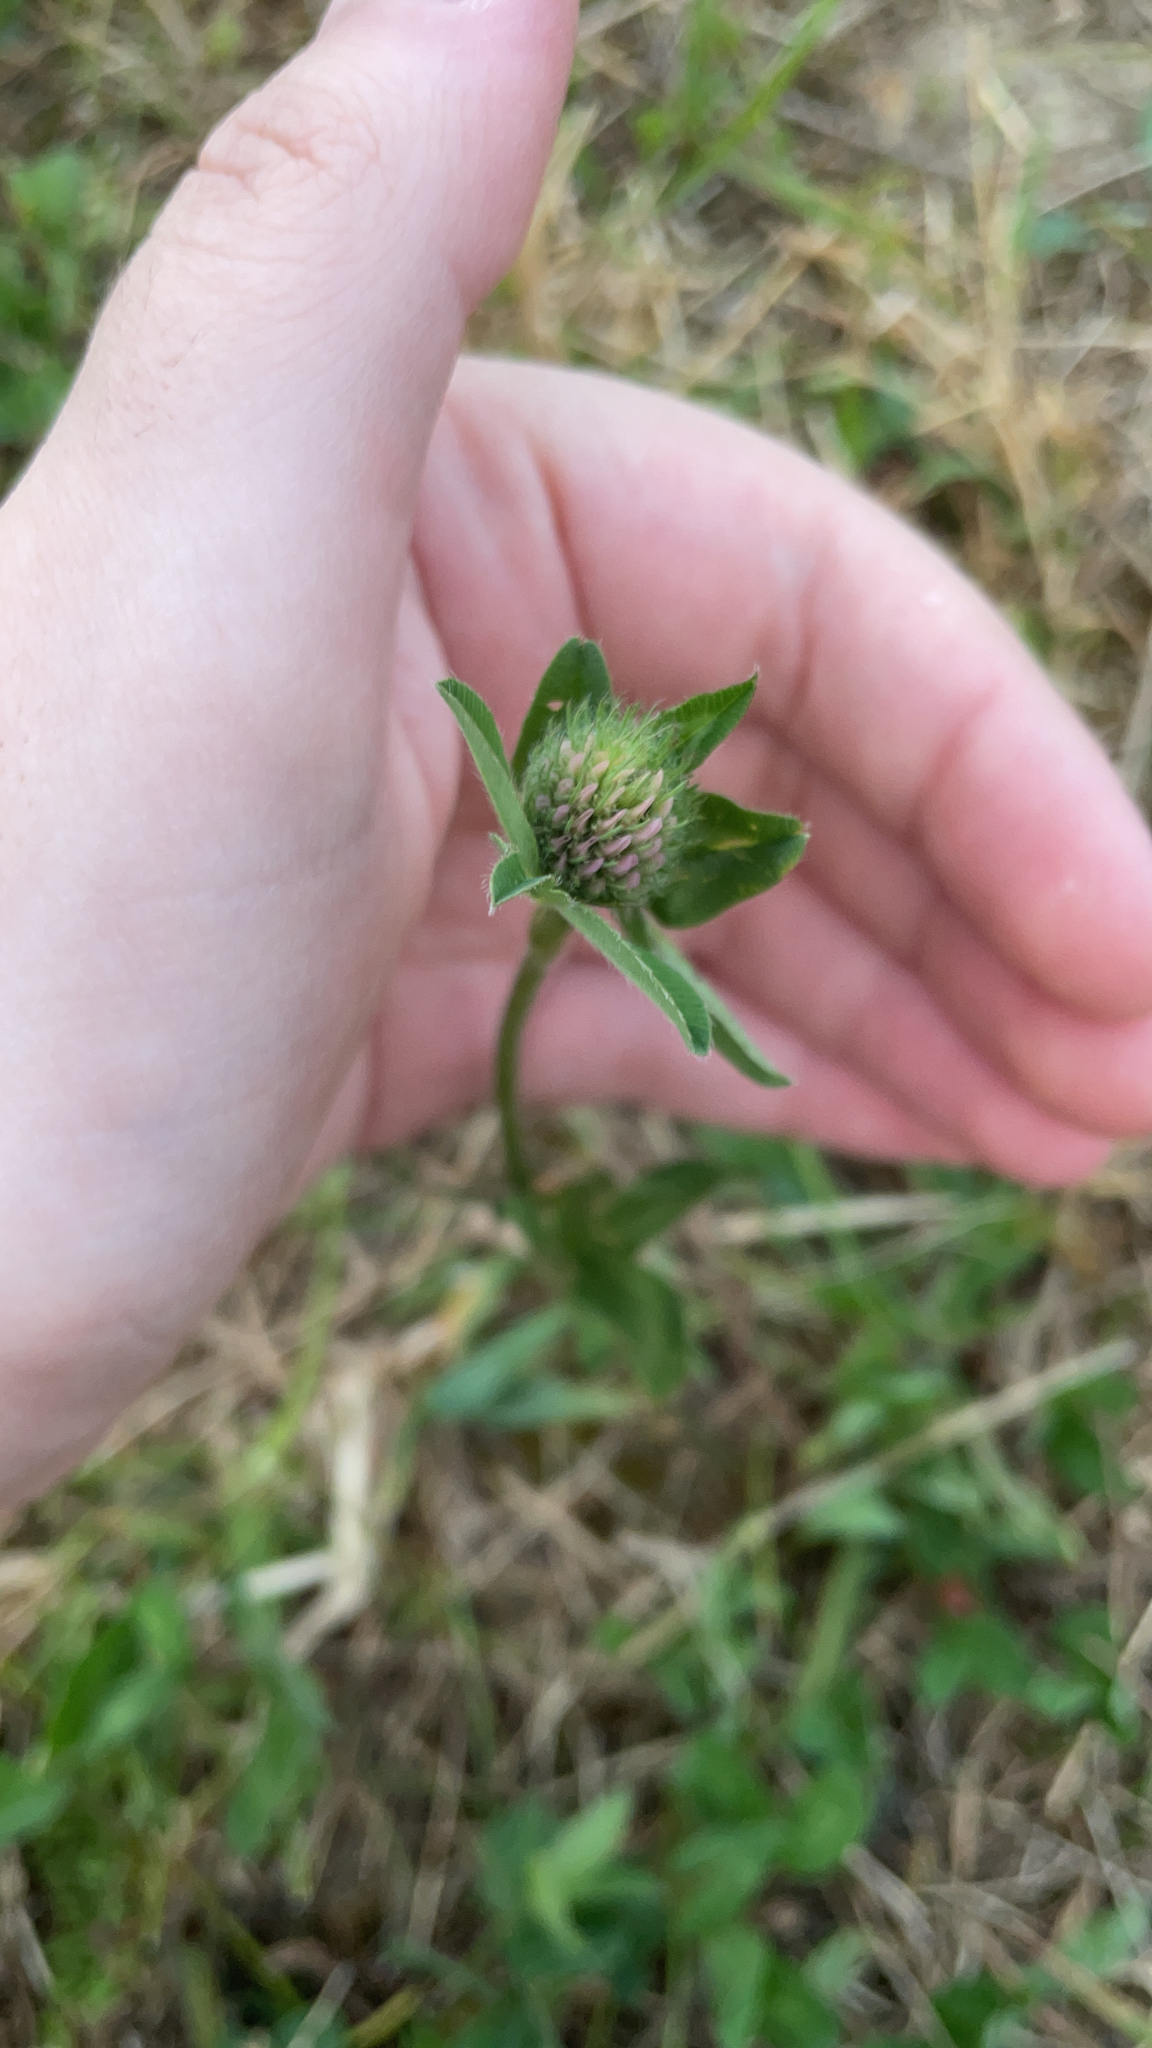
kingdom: Plantae
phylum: Tracheophyta
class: Magnoliopsida
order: Fabales
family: Fabaceae
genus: Trifolium
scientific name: Trifolium pratense
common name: Red clover
